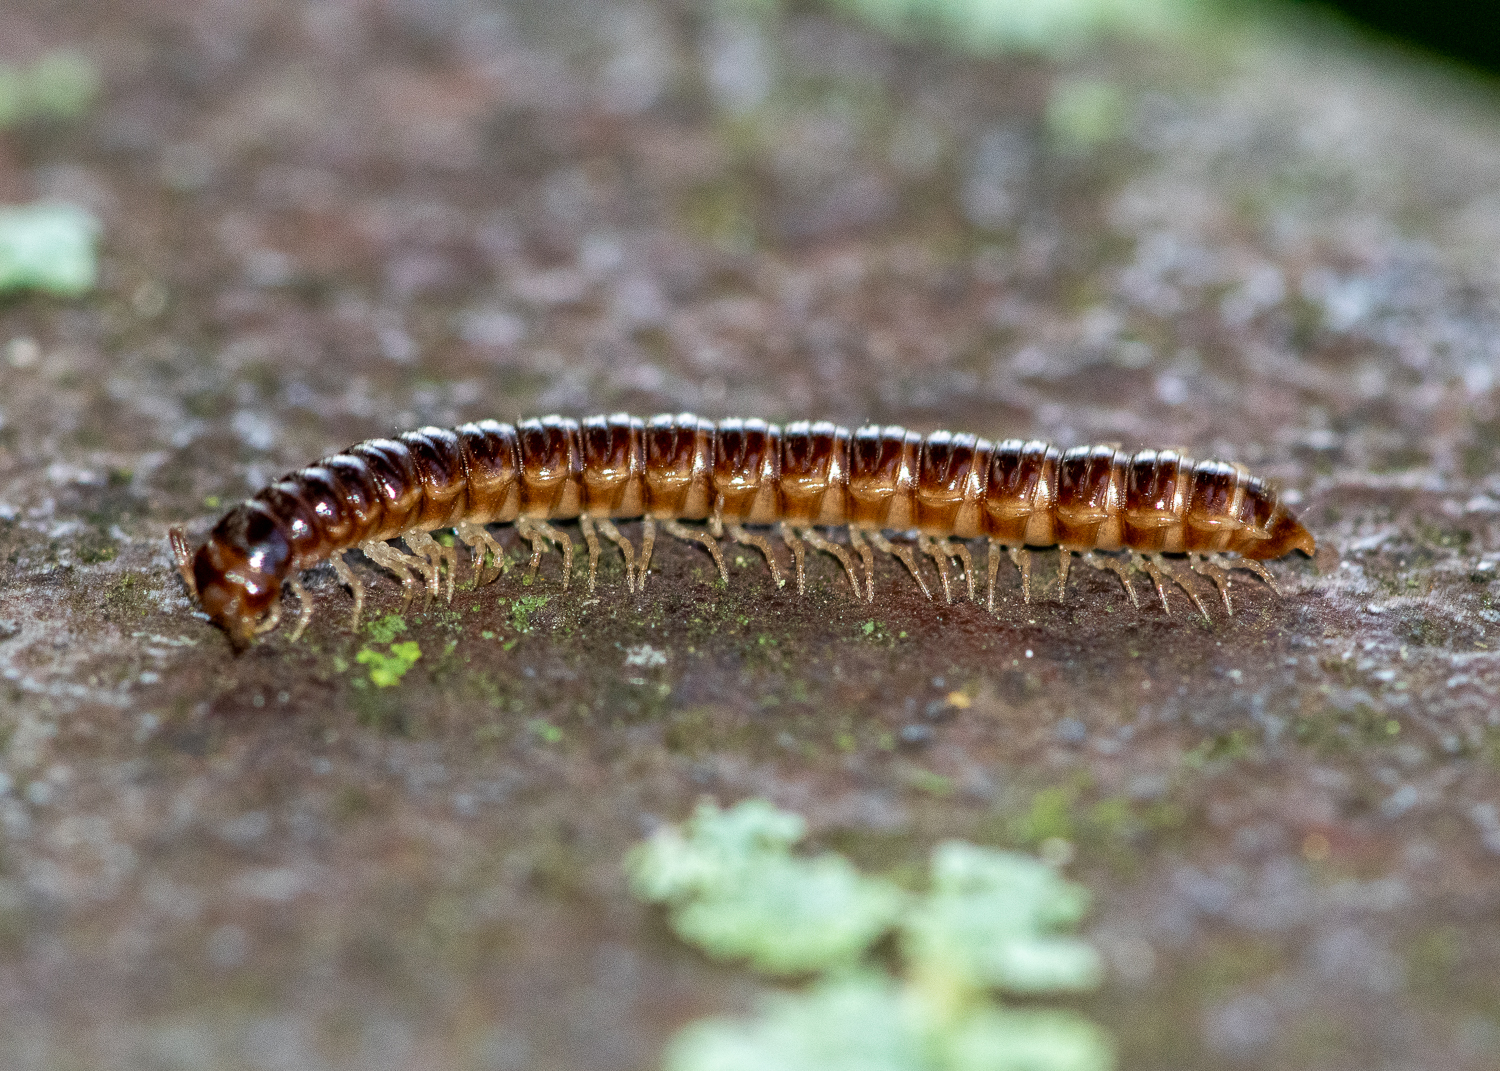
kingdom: Animalia
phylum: Arthropoda
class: Diplopoda
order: Polydesmida
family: Paradoxosomatidae
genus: Oxidus
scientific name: Oxidus gracilis
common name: Greenhouse millipede
